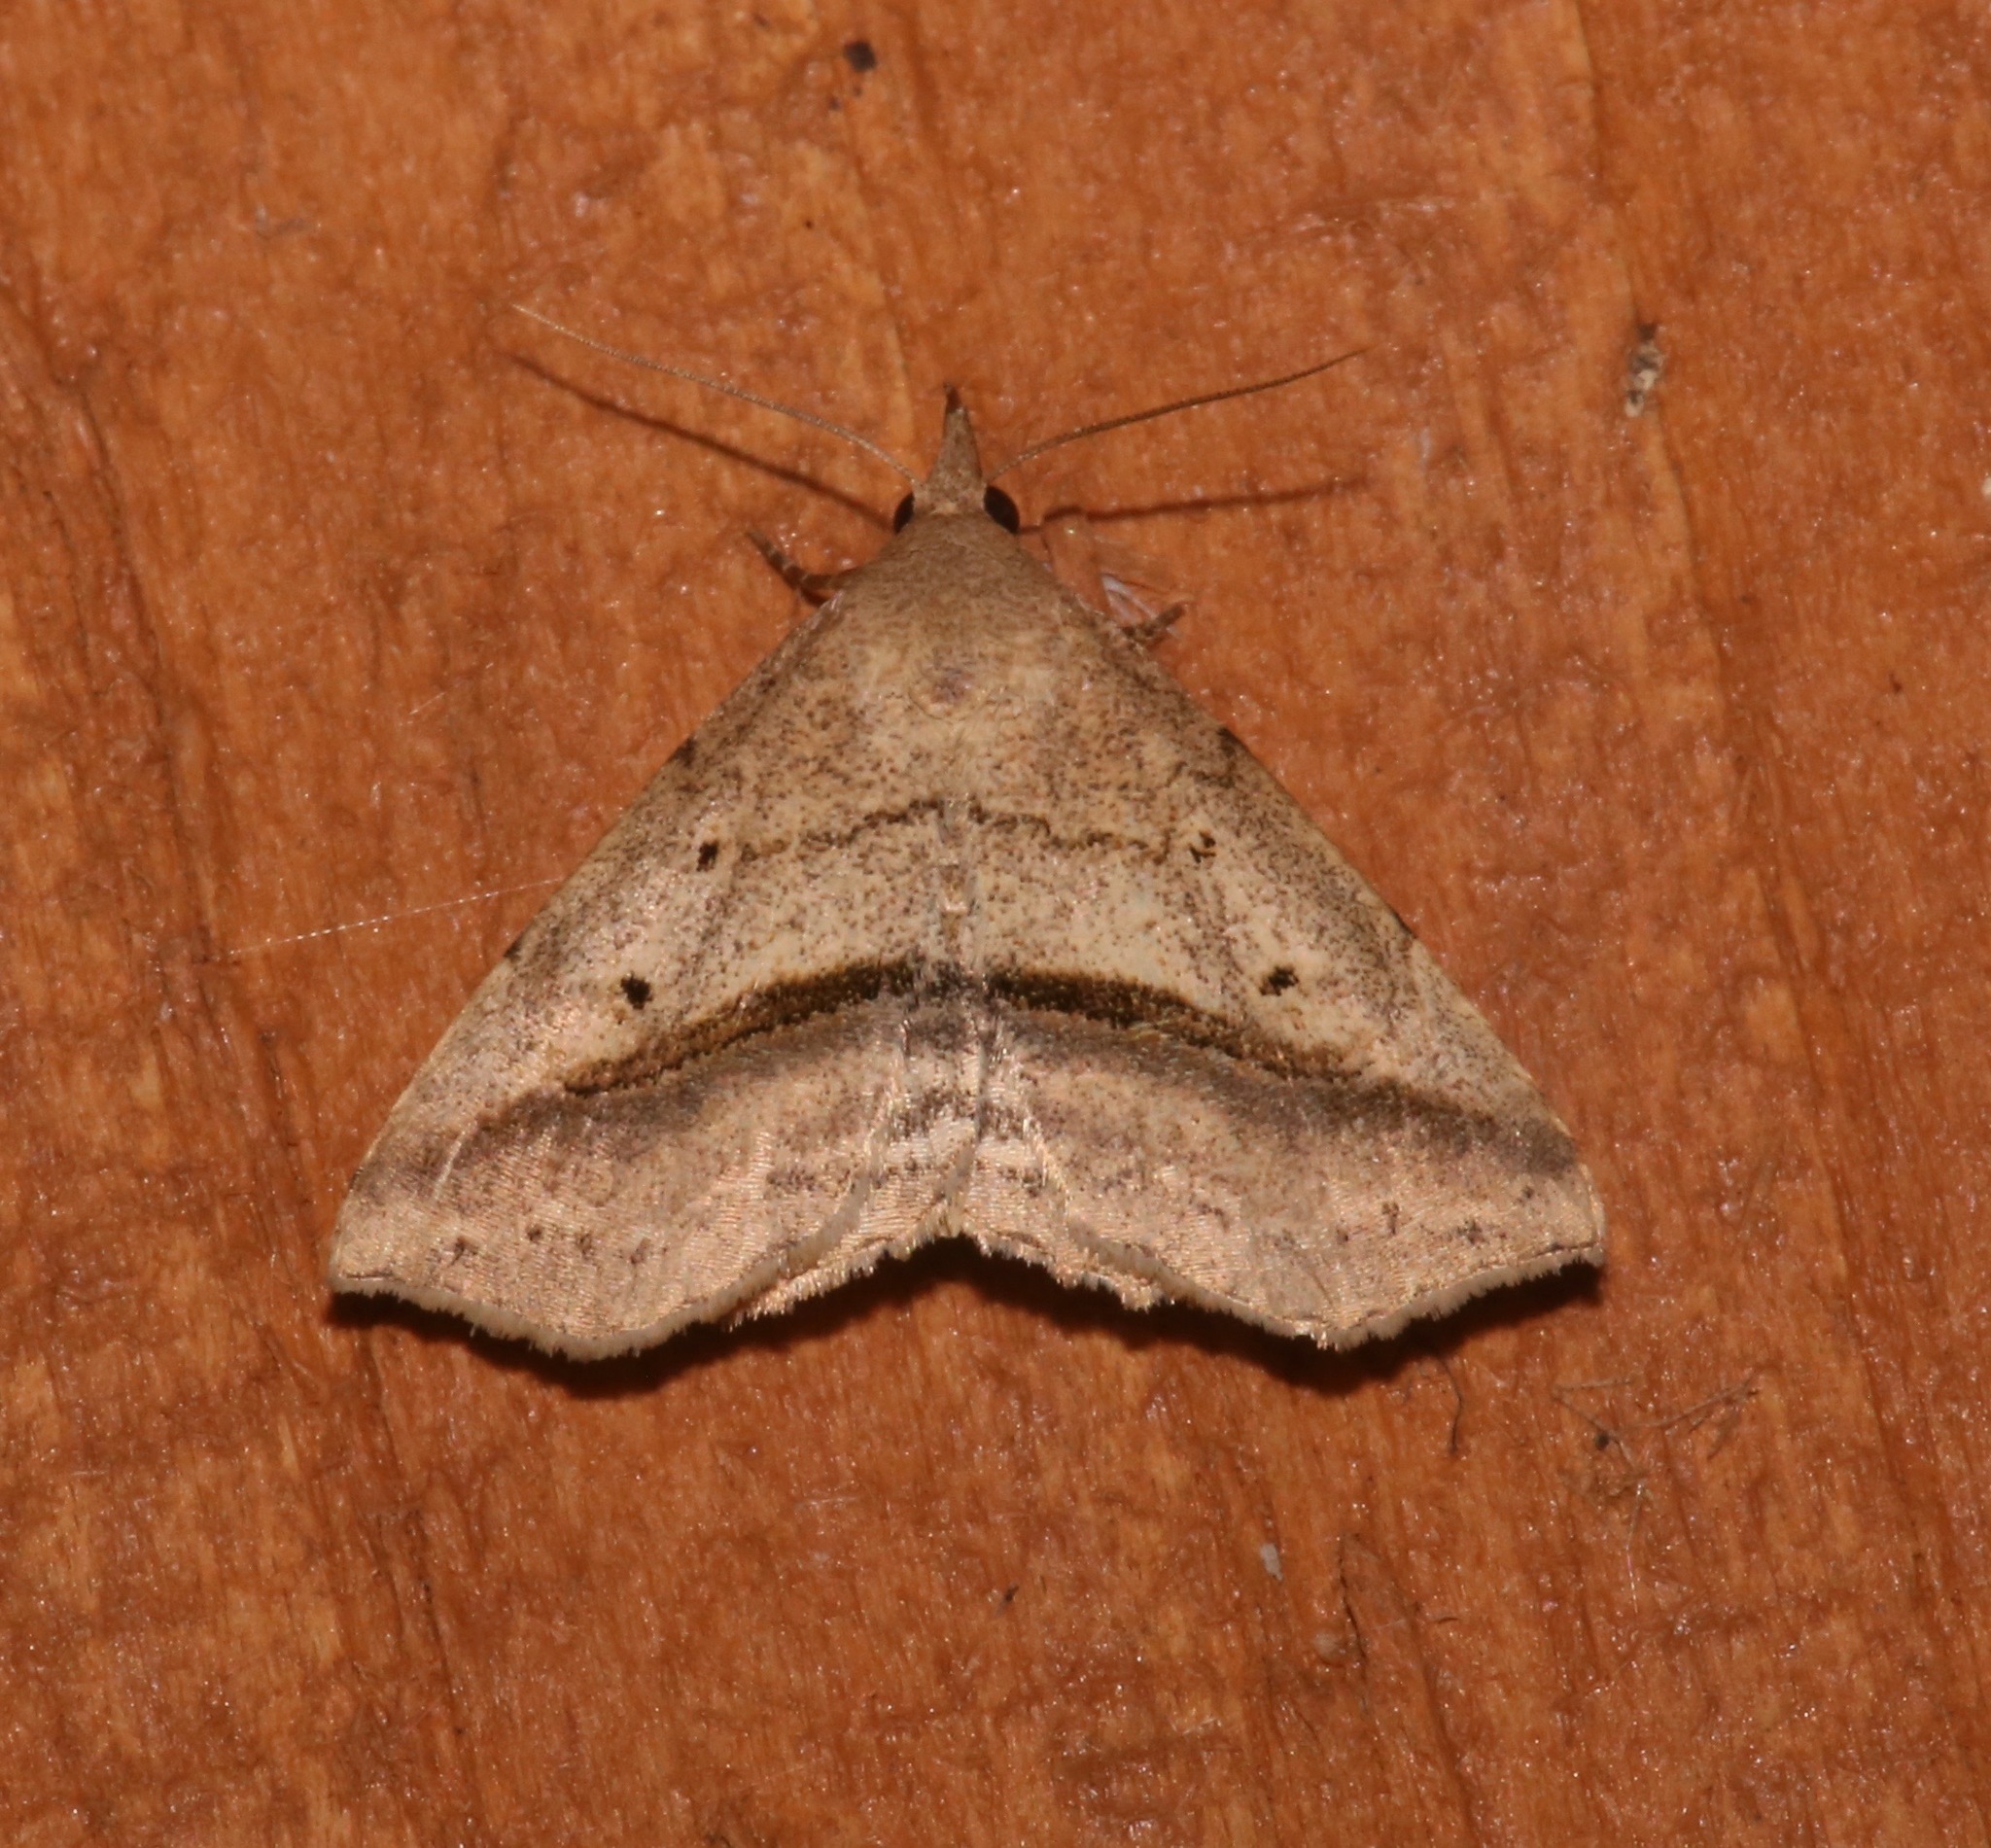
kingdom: Animalia
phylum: Arthropoda
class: Insecta
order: Lepidoptera
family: Erebidae
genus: Spargaloma
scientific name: Spargaloma perditalis
